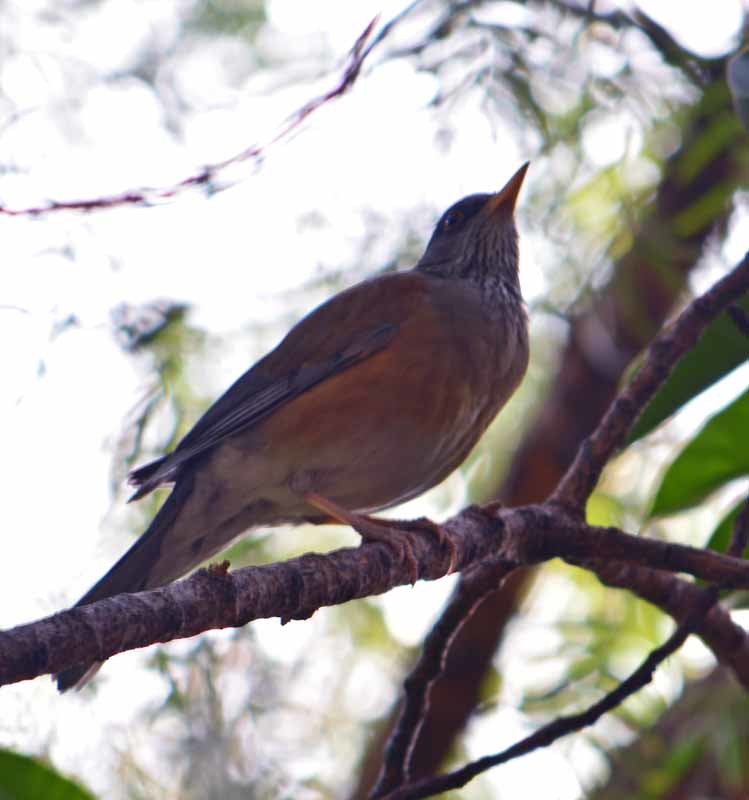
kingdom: Animalia
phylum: Chordata
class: Aves
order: Passeriformes
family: Turdidae
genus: Turdus
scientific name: Turdus rufopalliatus
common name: Rufous-backed robin
